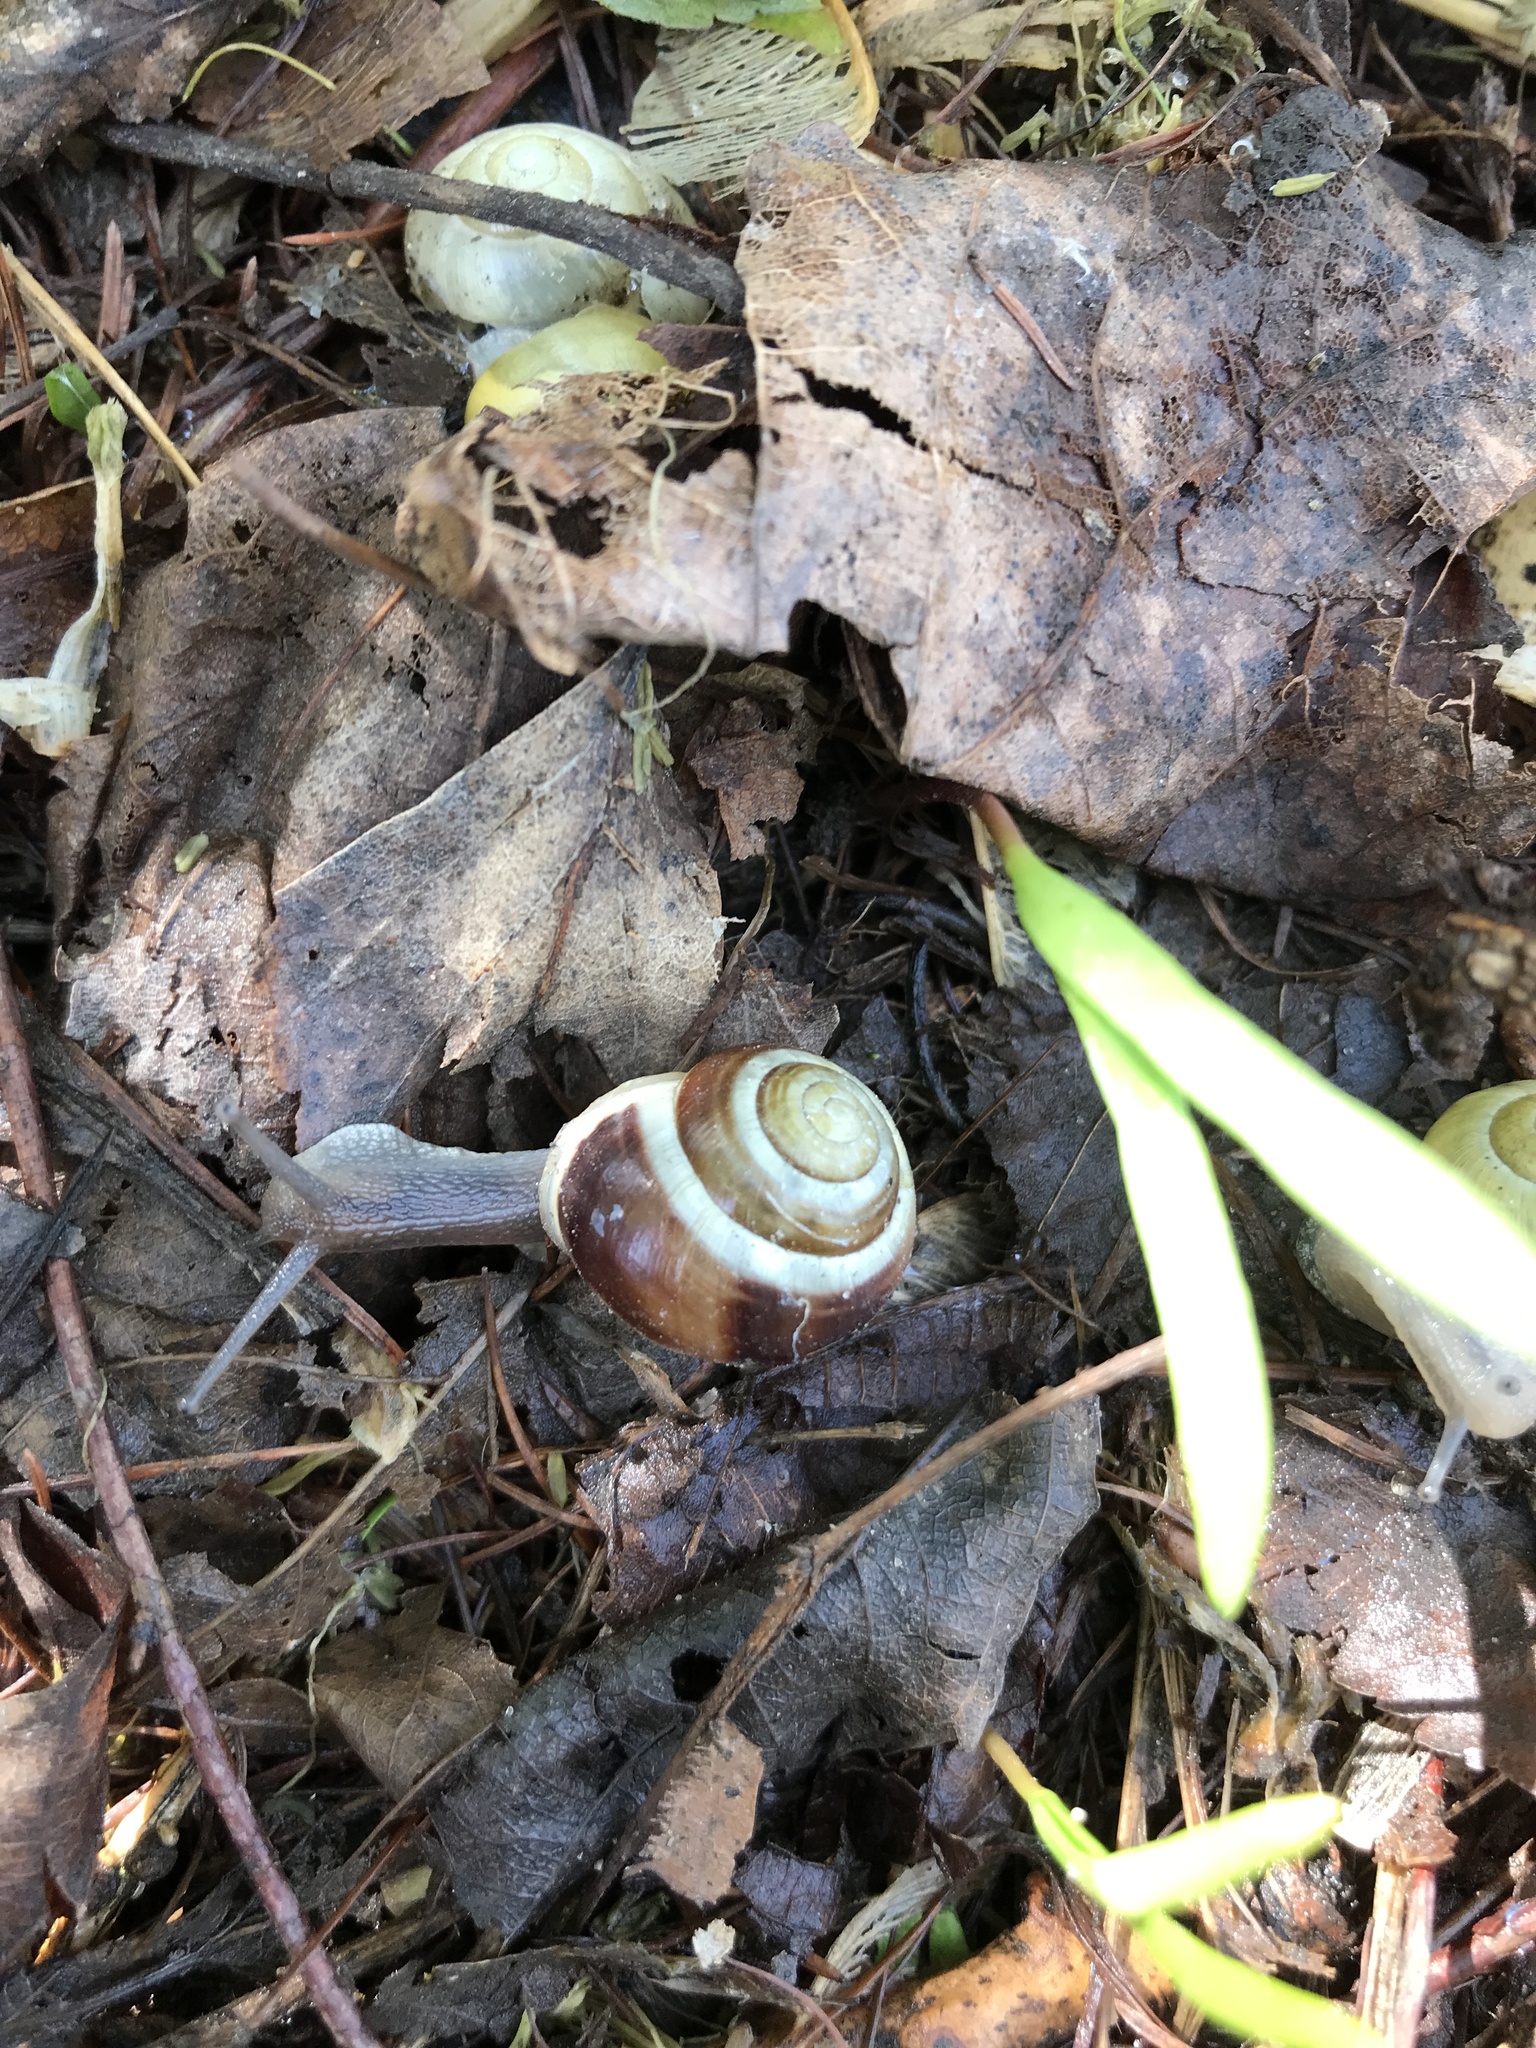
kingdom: Animalia
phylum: Mollusca
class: Gastropoda
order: Stylommatophora
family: Helicidae
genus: Cepaea
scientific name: Cepaea hortensis
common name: White-lip gardensnail
